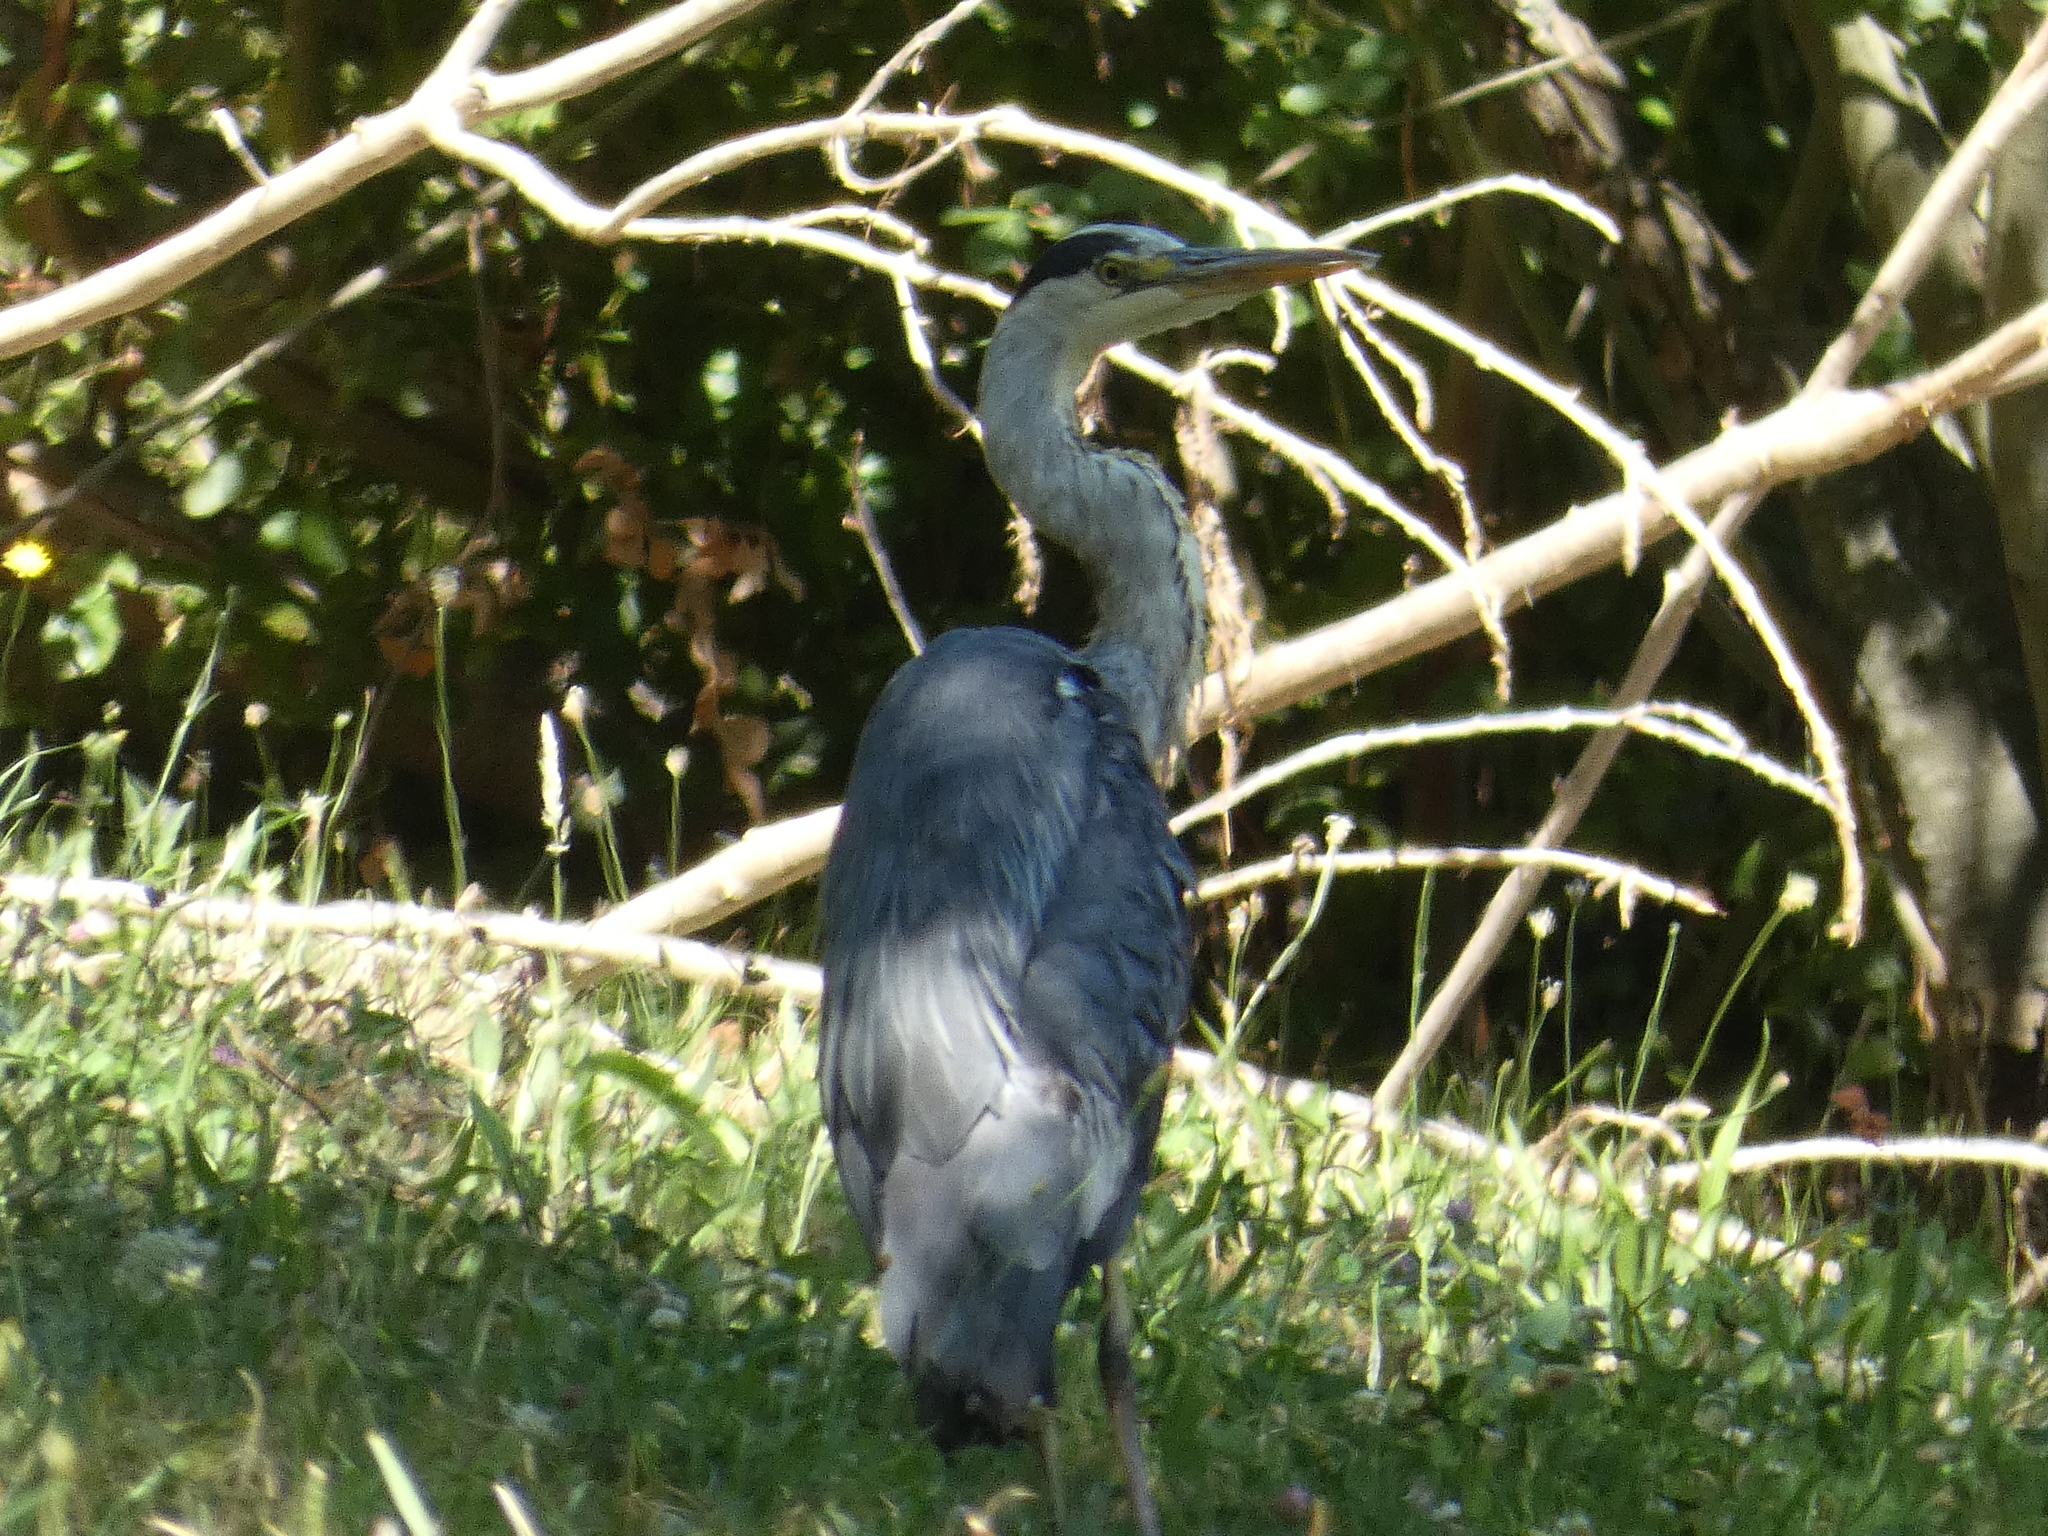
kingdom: Animalia
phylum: Chordata
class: Aves
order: Pelecaniformes
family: Ardeidae
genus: Ardea
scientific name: Ardea cinerea
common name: Grey heron
